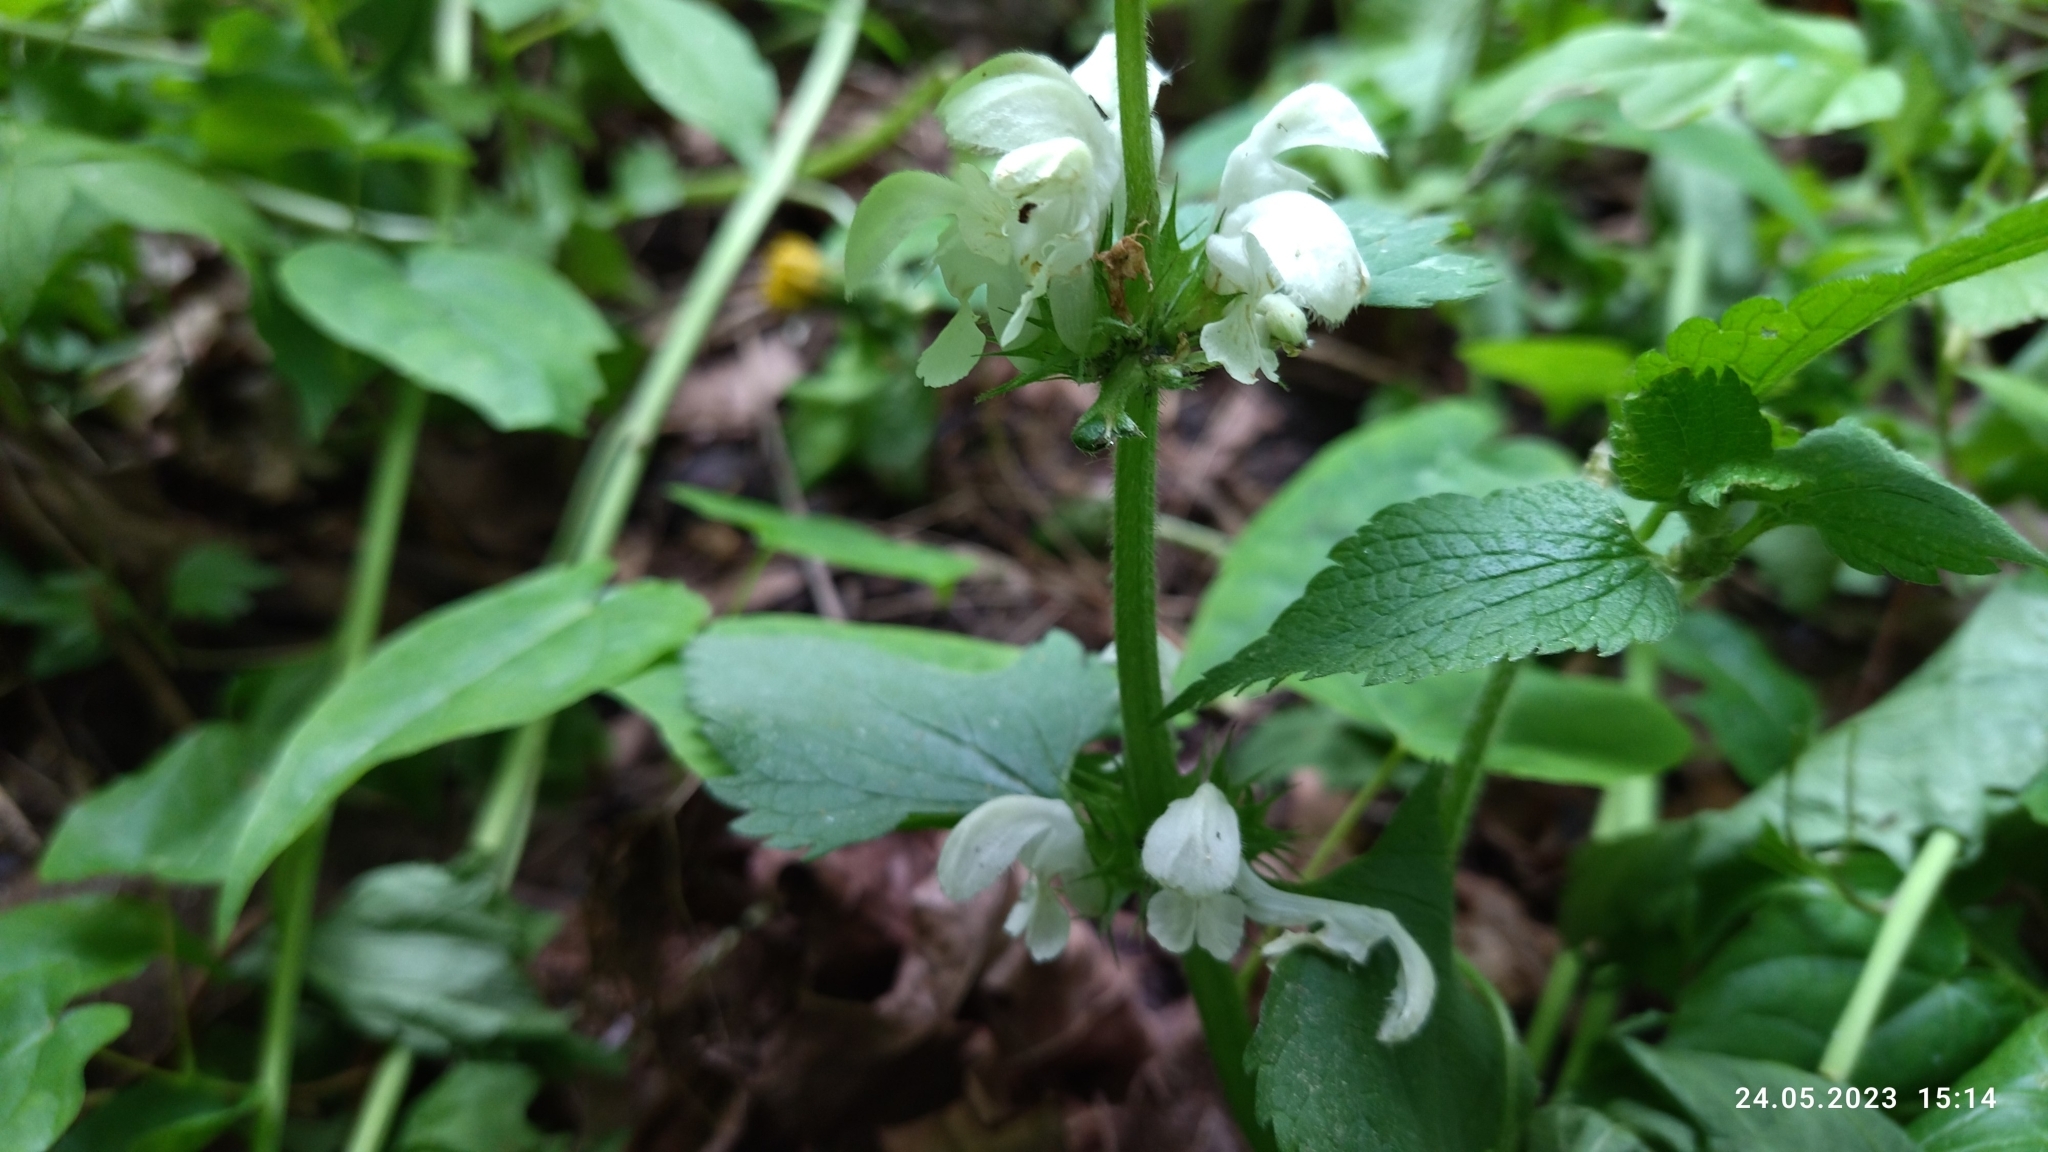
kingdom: Plantae
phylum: Tracheophyta
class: Magnoliopsida
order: Lamiales
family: Lamiaceae
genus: Lamium
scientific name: Lamium album
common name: White dead-nettle
